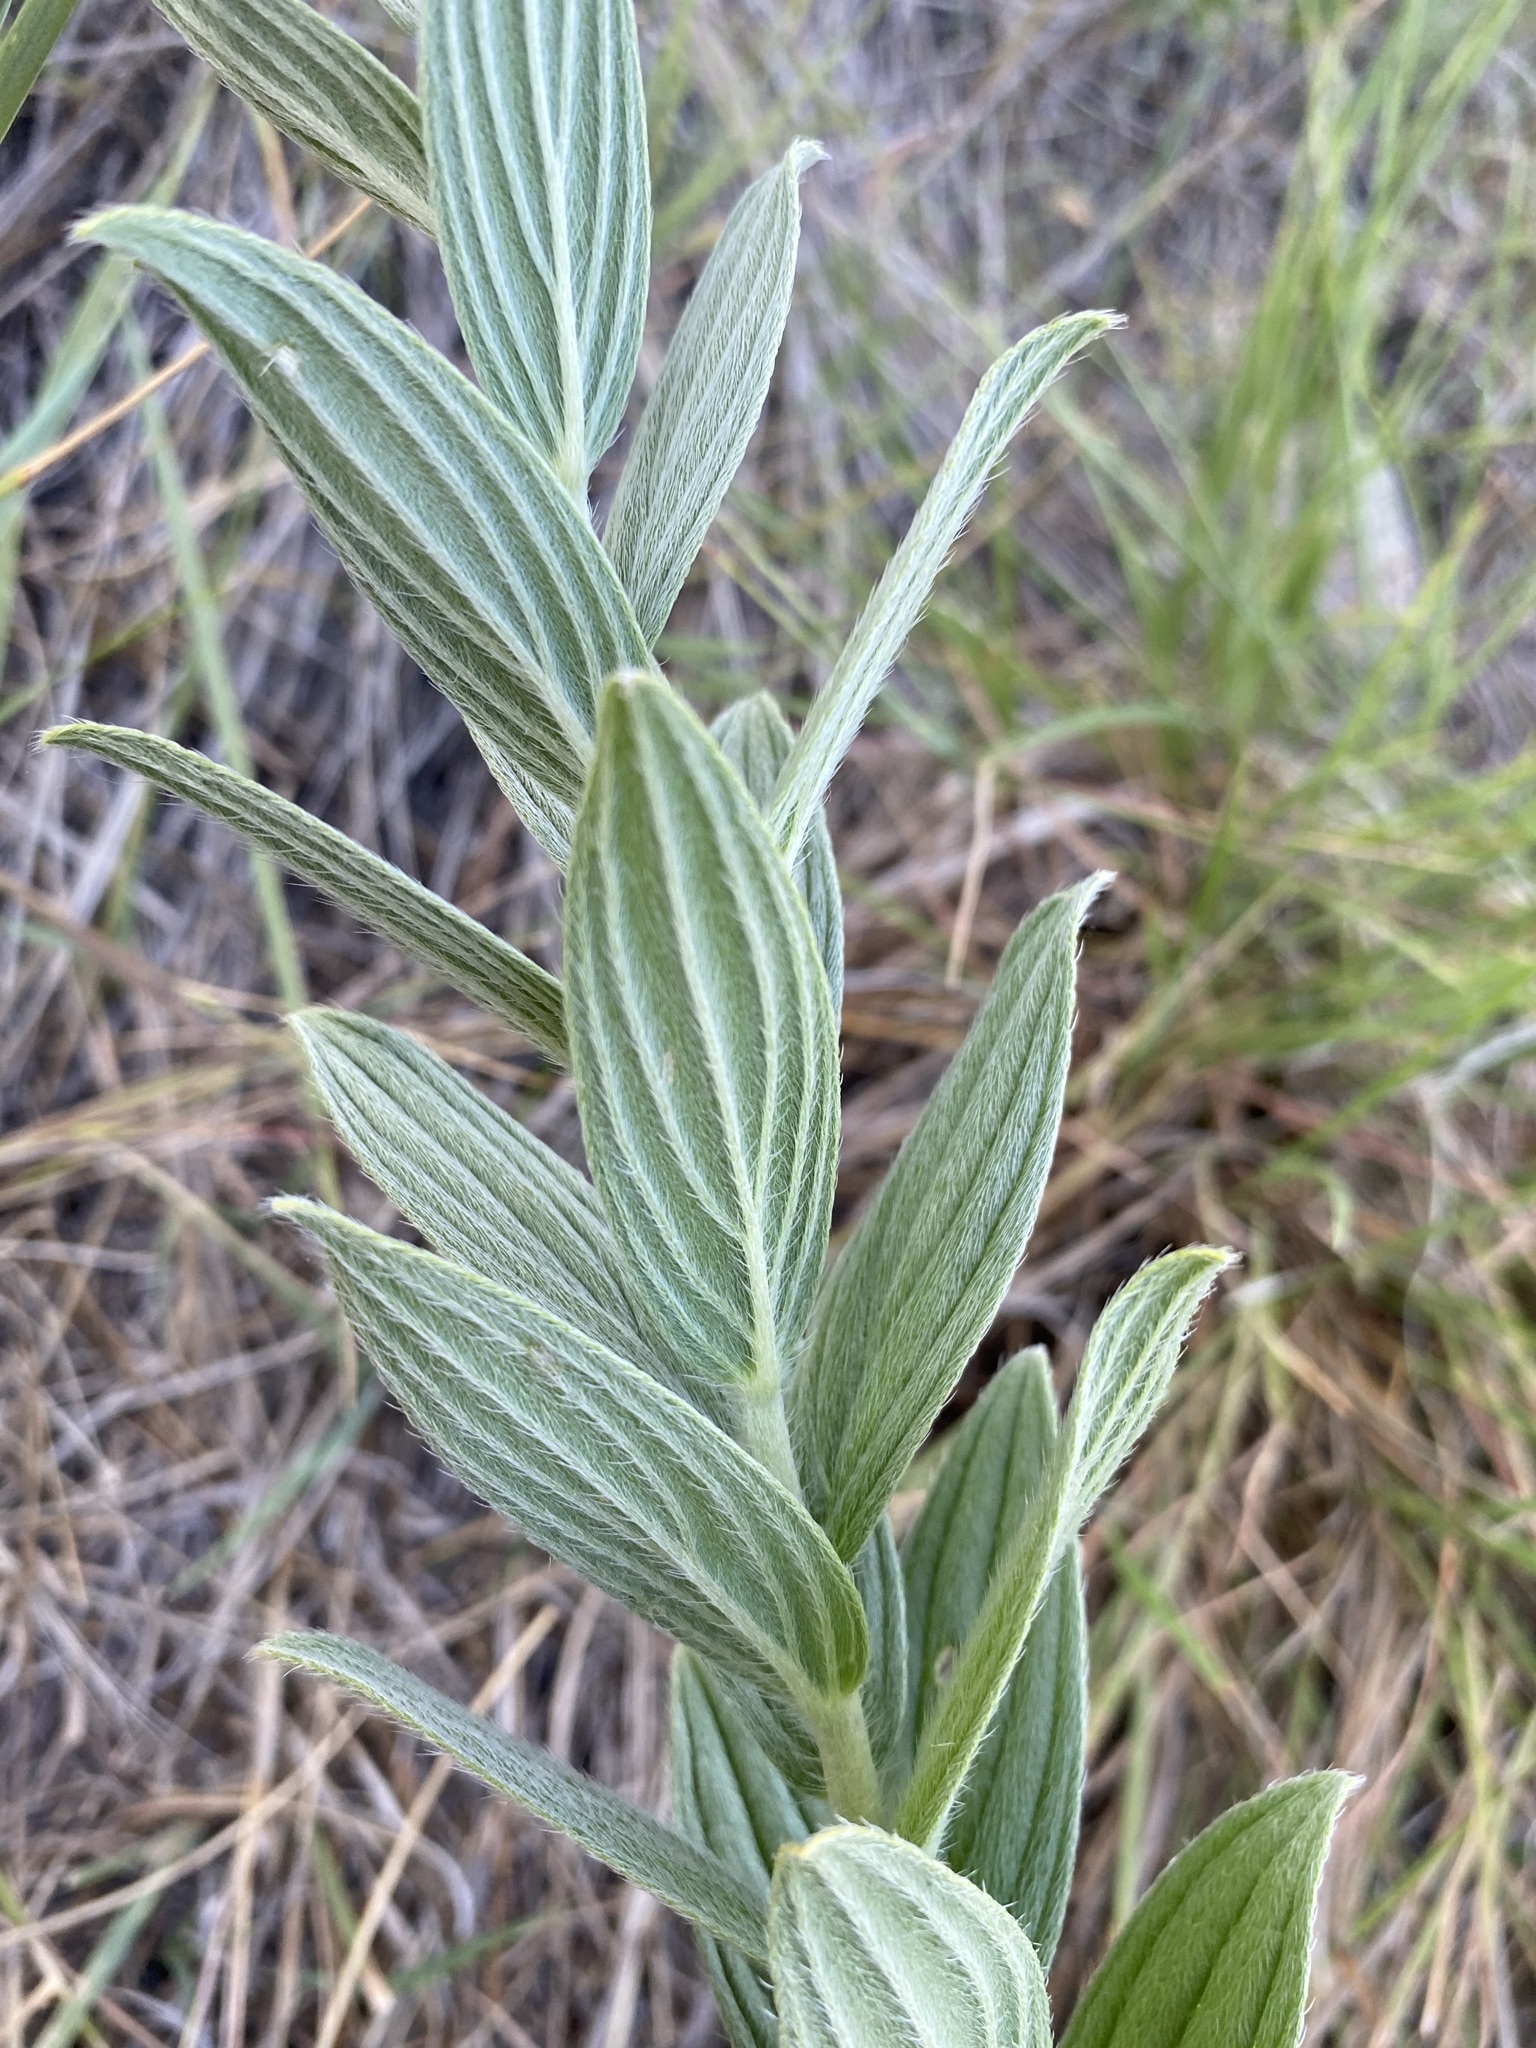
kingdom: Plantae
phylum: Tracheophyta
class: Magnoliopsida
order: Boraginales
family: Boraginaceae
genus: Lithospermum
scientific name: Lithospermum occidentale
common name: Western false gromwell
